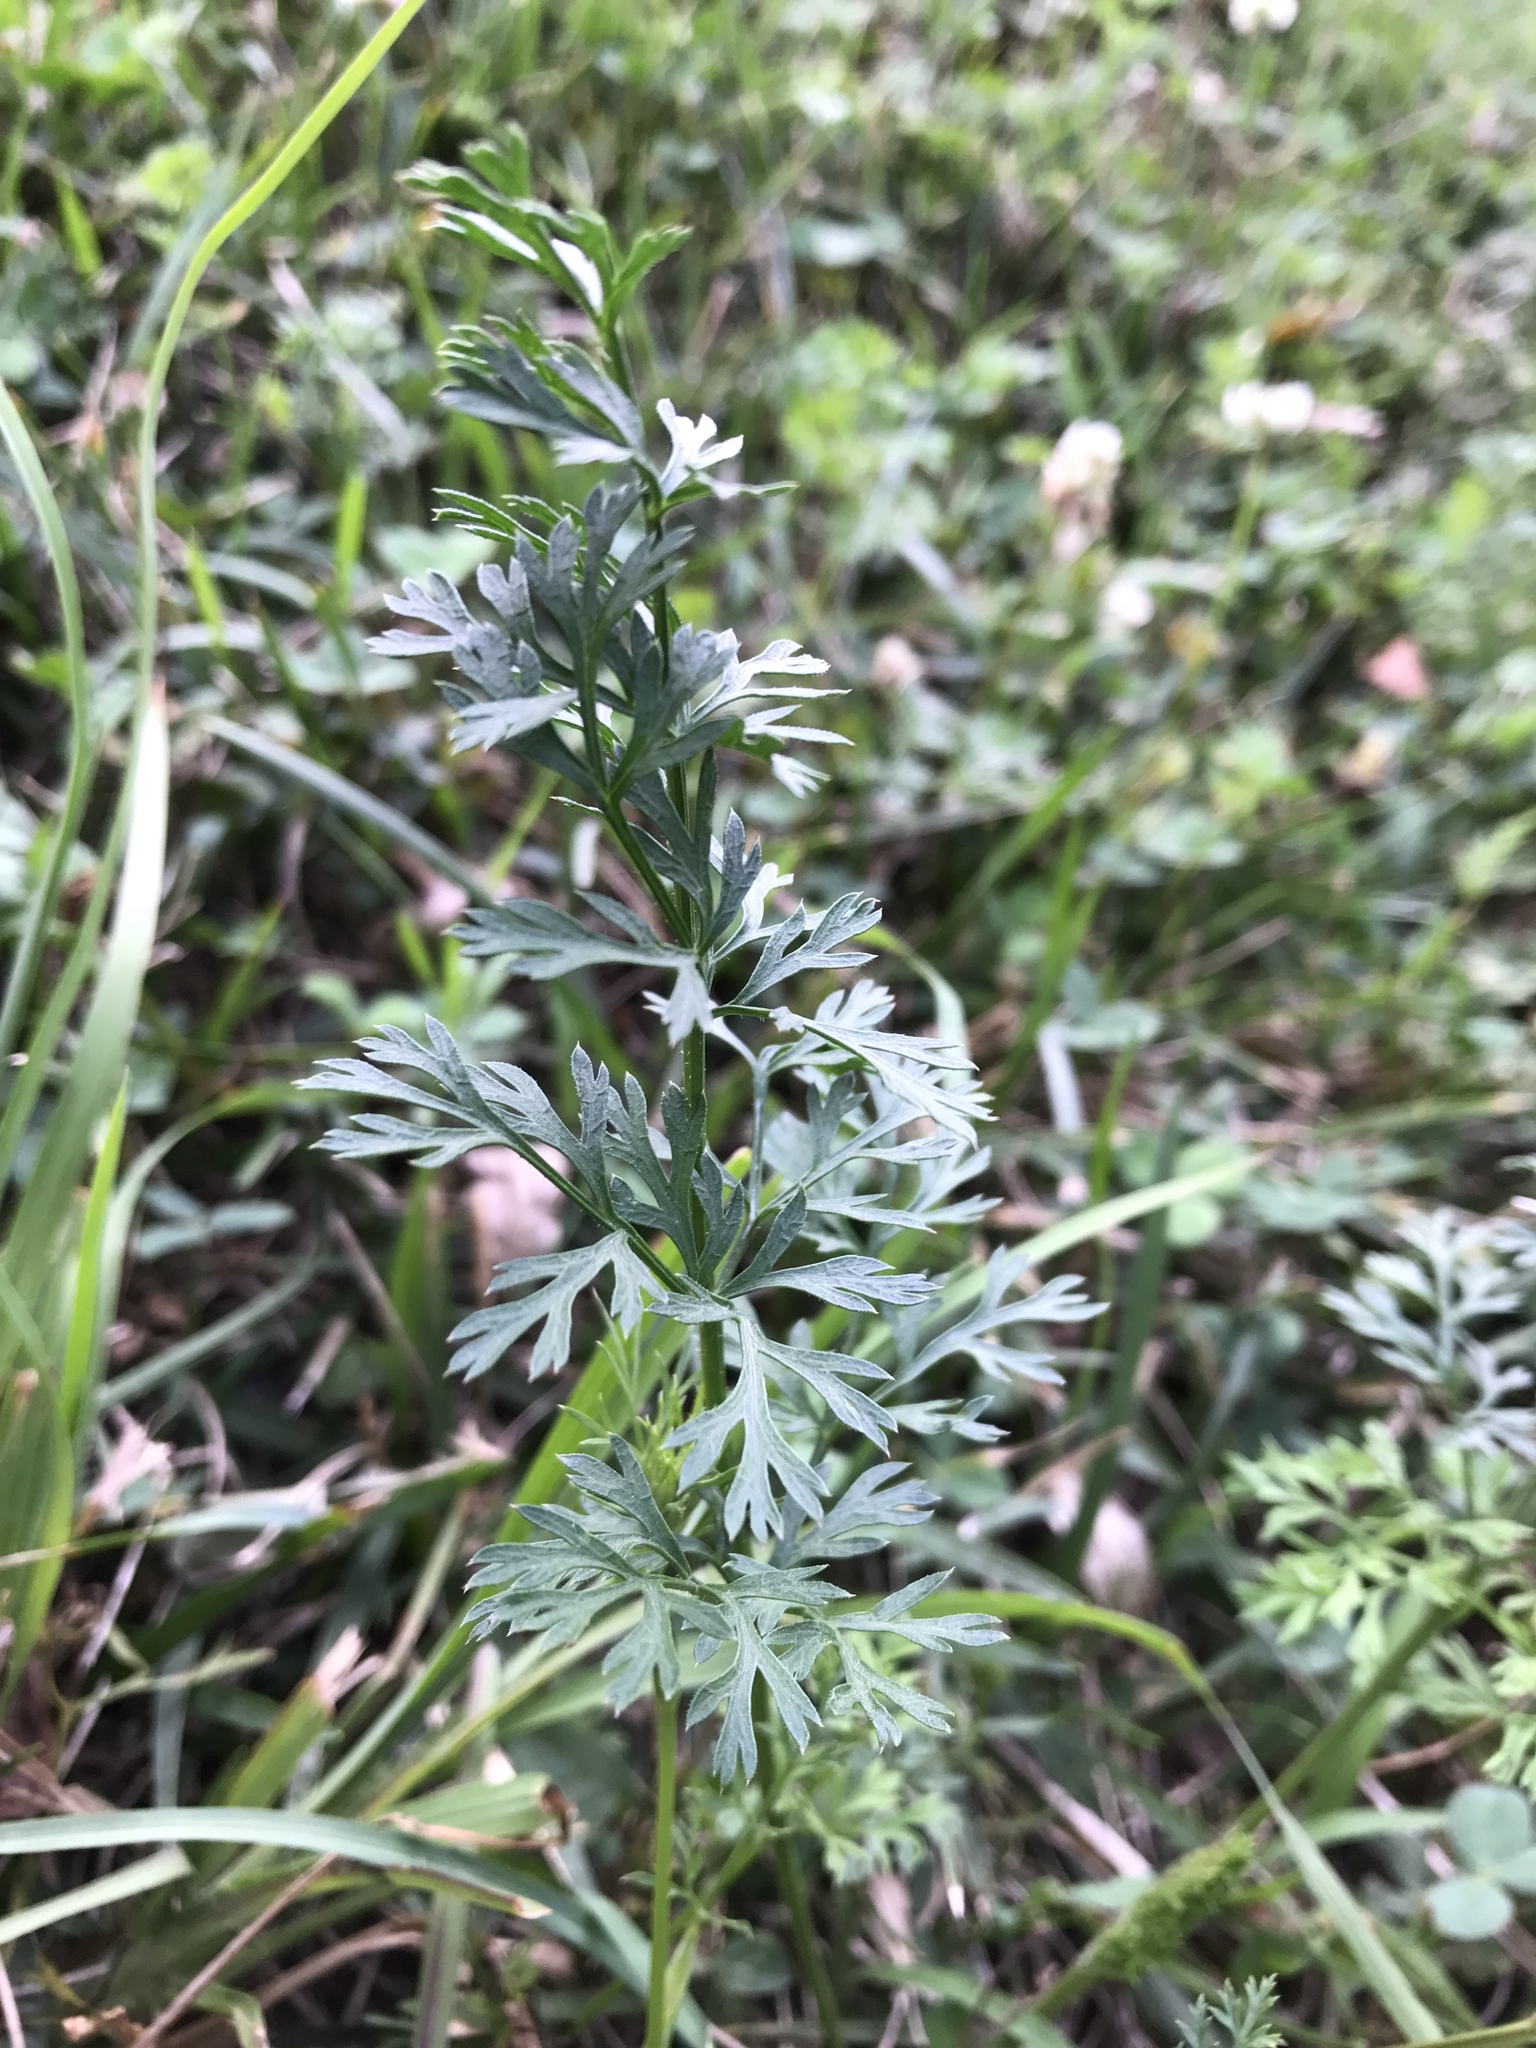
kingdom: Plantae
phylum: Tracheophyta
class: Magnoliopsida
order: Apiales
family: Apiaceae
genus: Daucus
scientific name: Daucus carota
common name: Wild carrot
